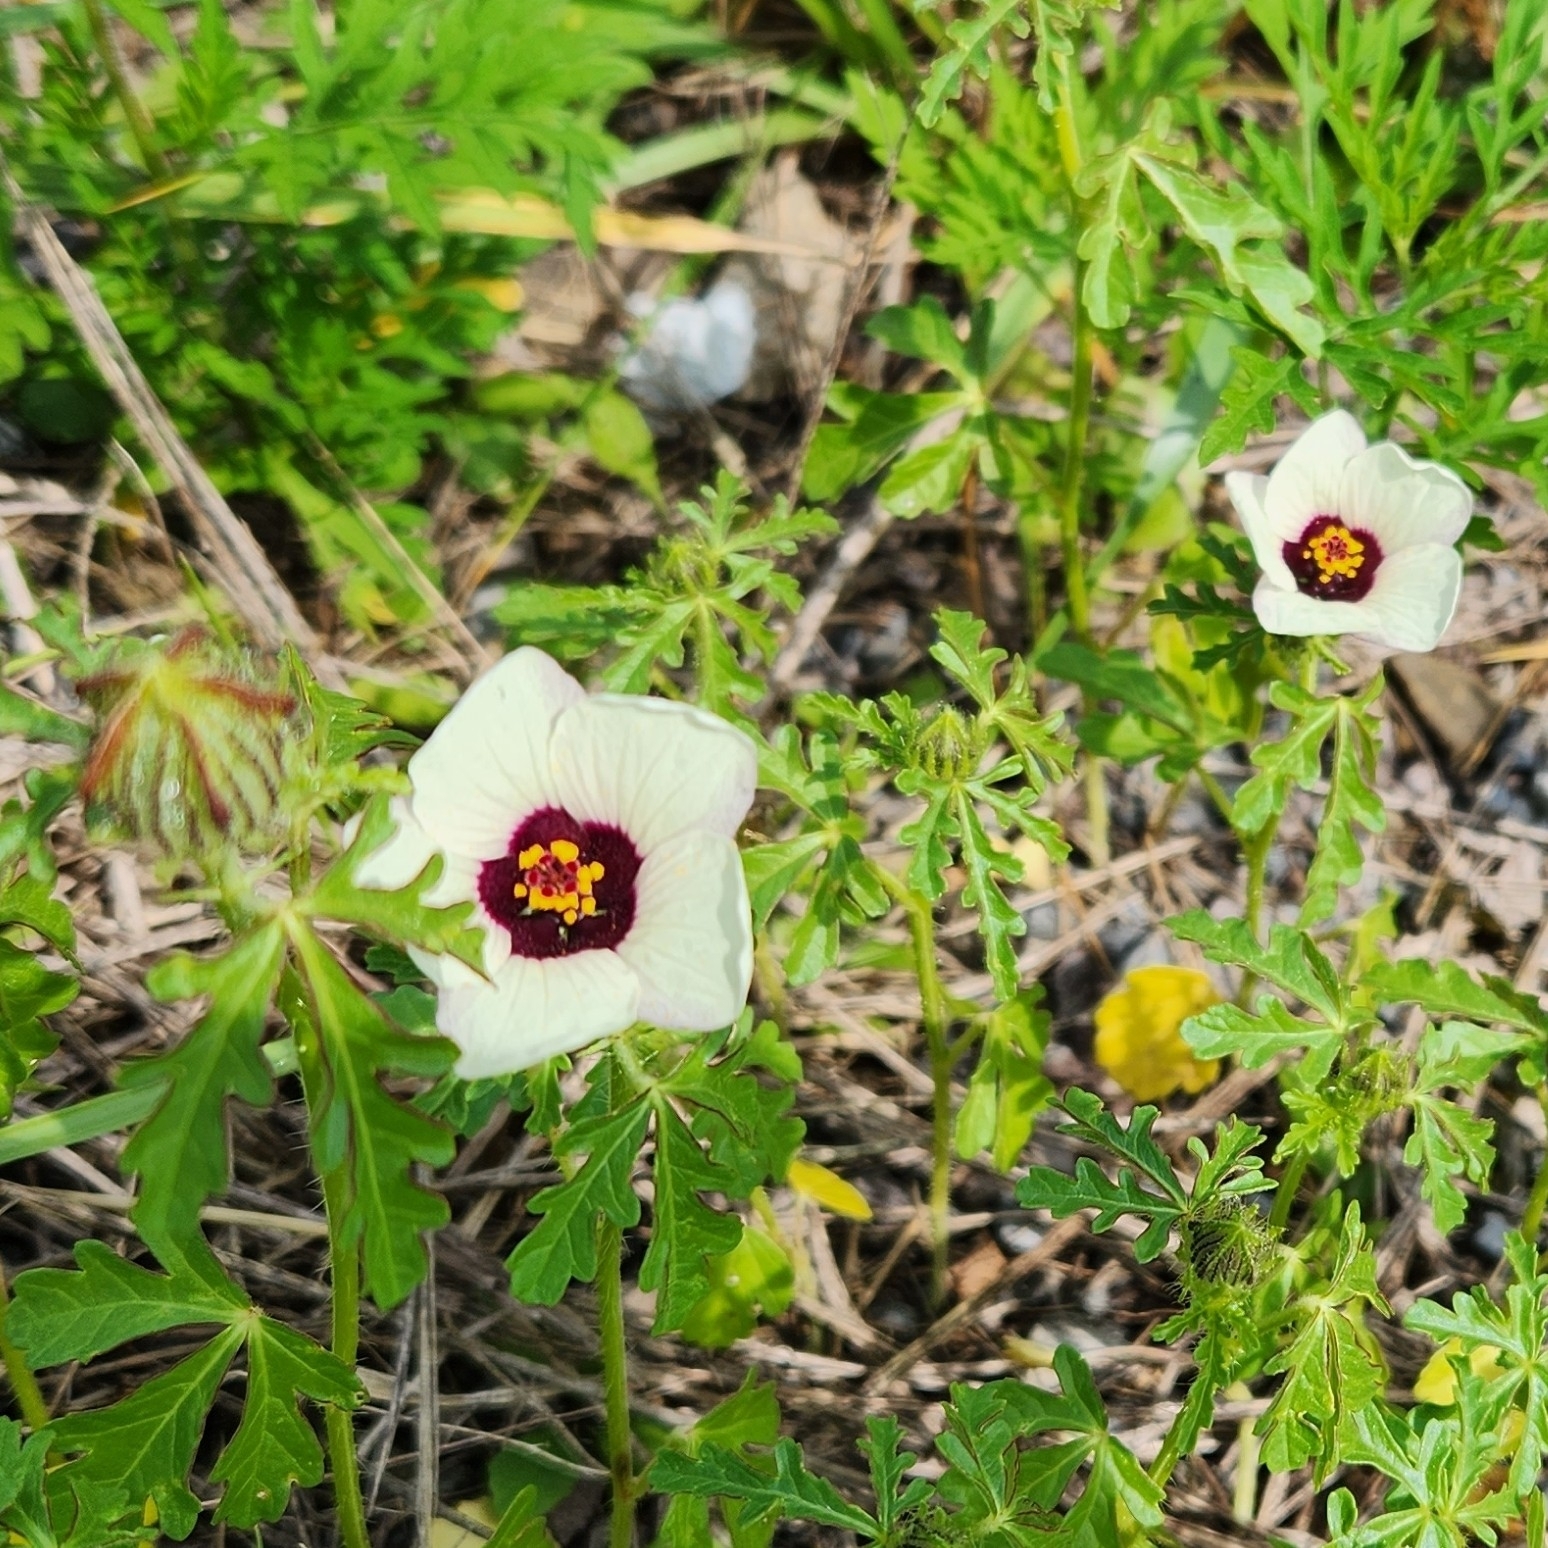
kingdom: Plantae
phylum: Tracheophyta
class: Magnoliopsida
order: Malvales
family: Malvaceae
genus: Hibiscus
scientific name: Hibiscus trionum
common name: Bladder ketmia
